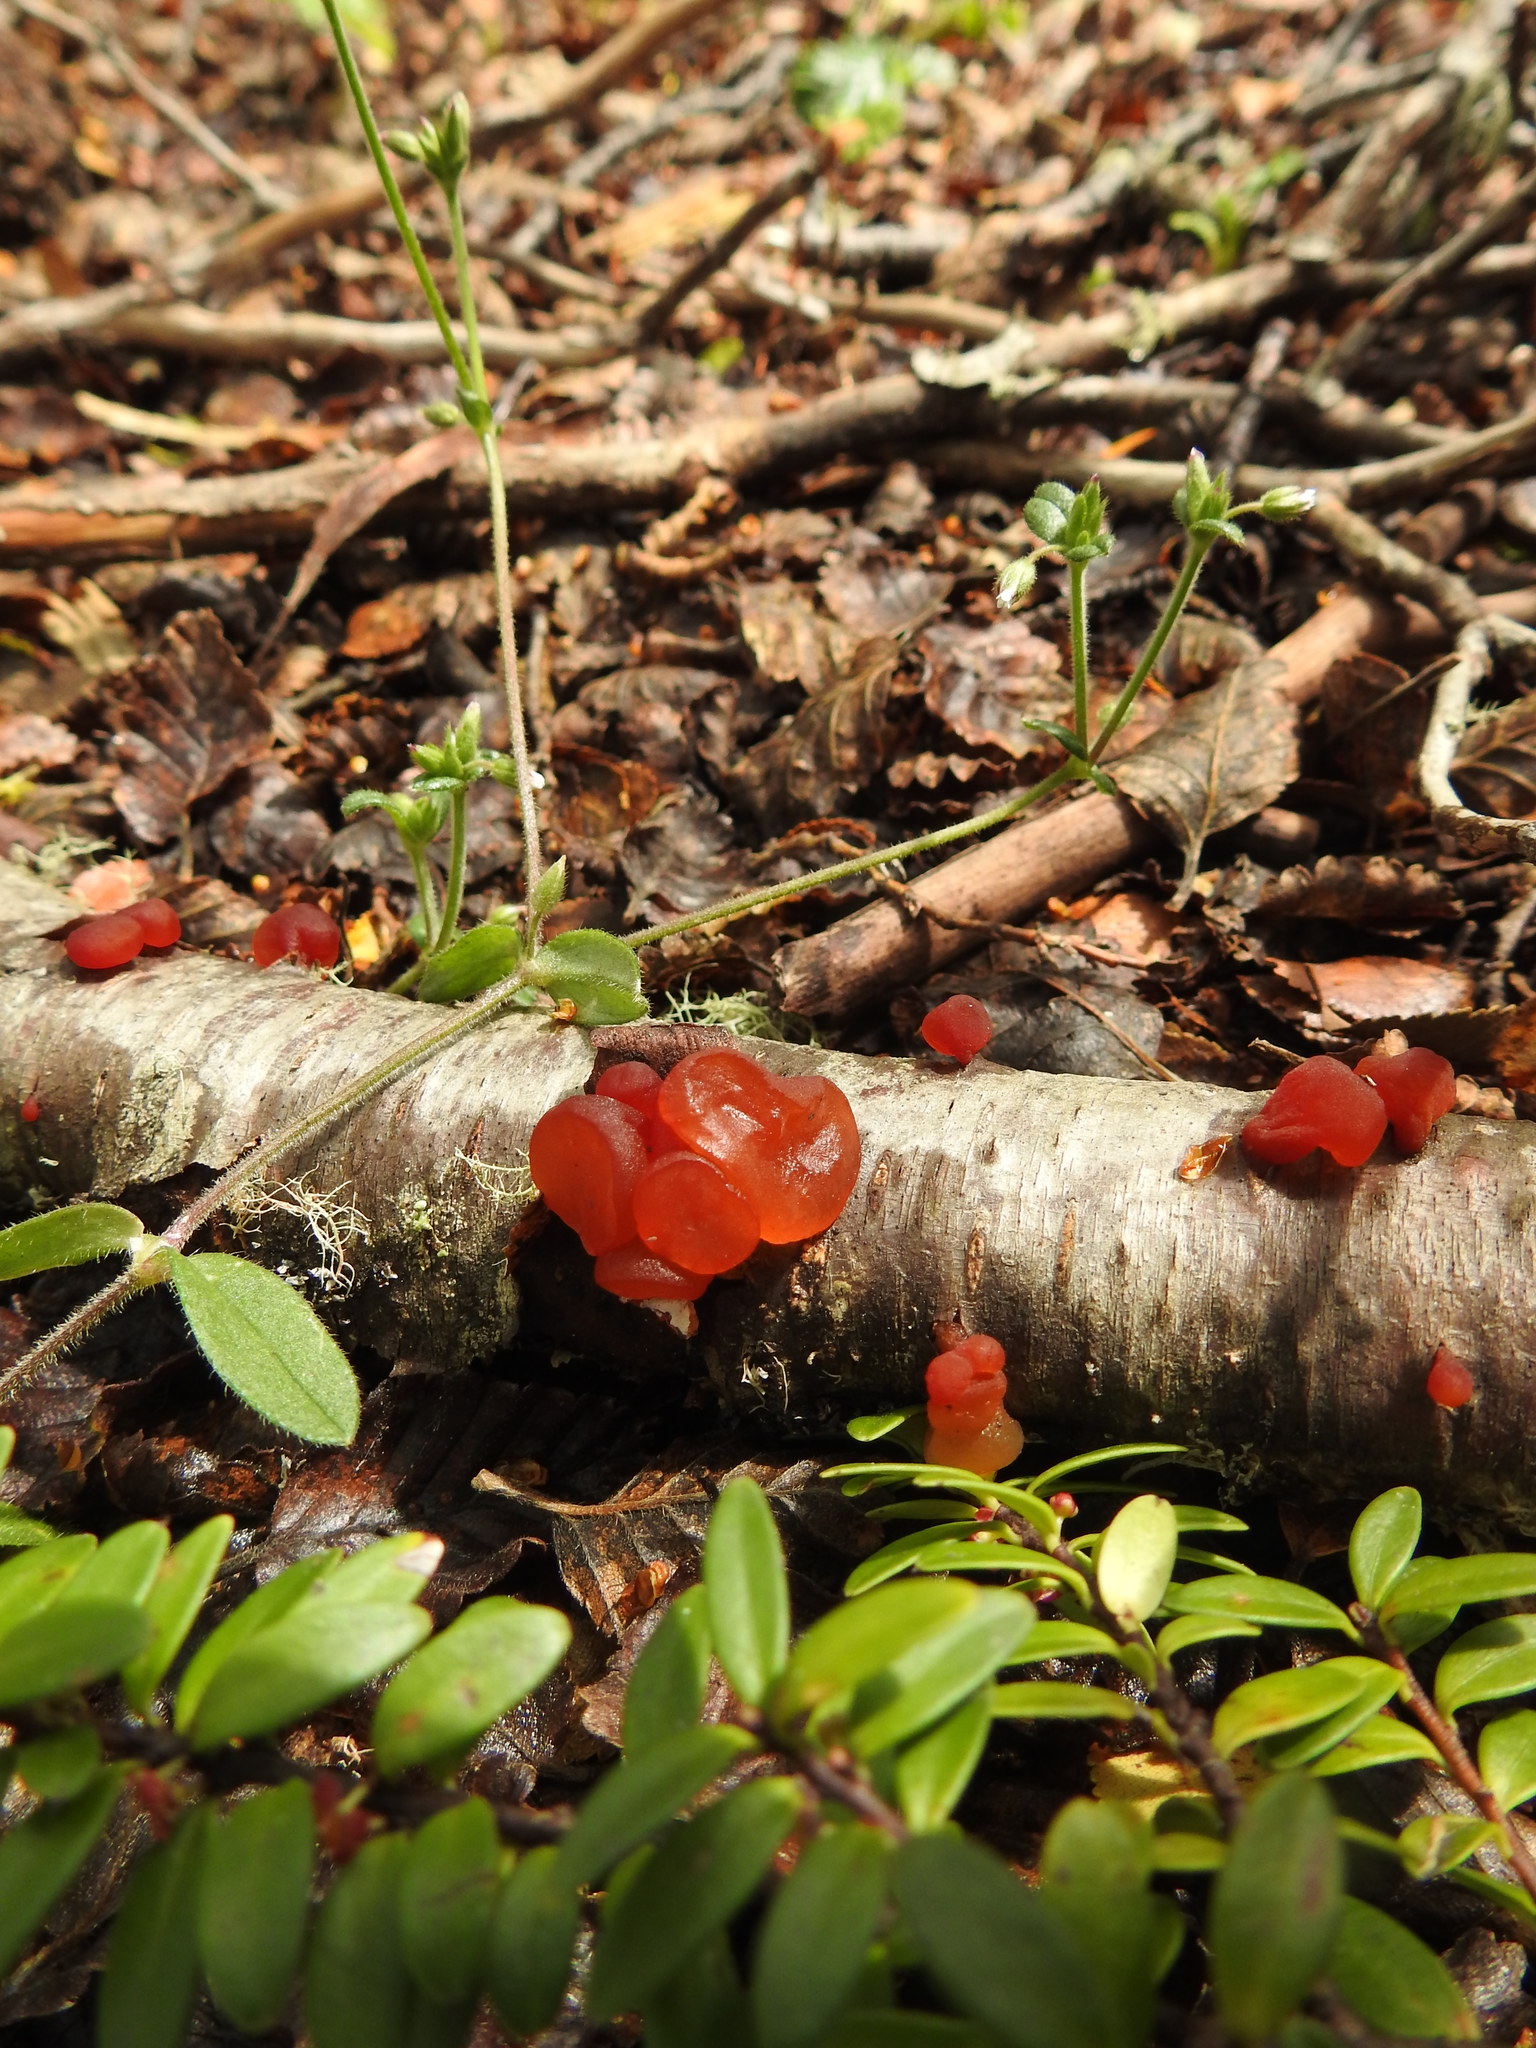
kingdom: Fungi
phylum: Basidiomycota
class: Dacrymycetes
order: Dacrymycetales
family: Dacrymycetaceae
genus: Guepiniopsis
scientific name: Guepiniopsis alpina
